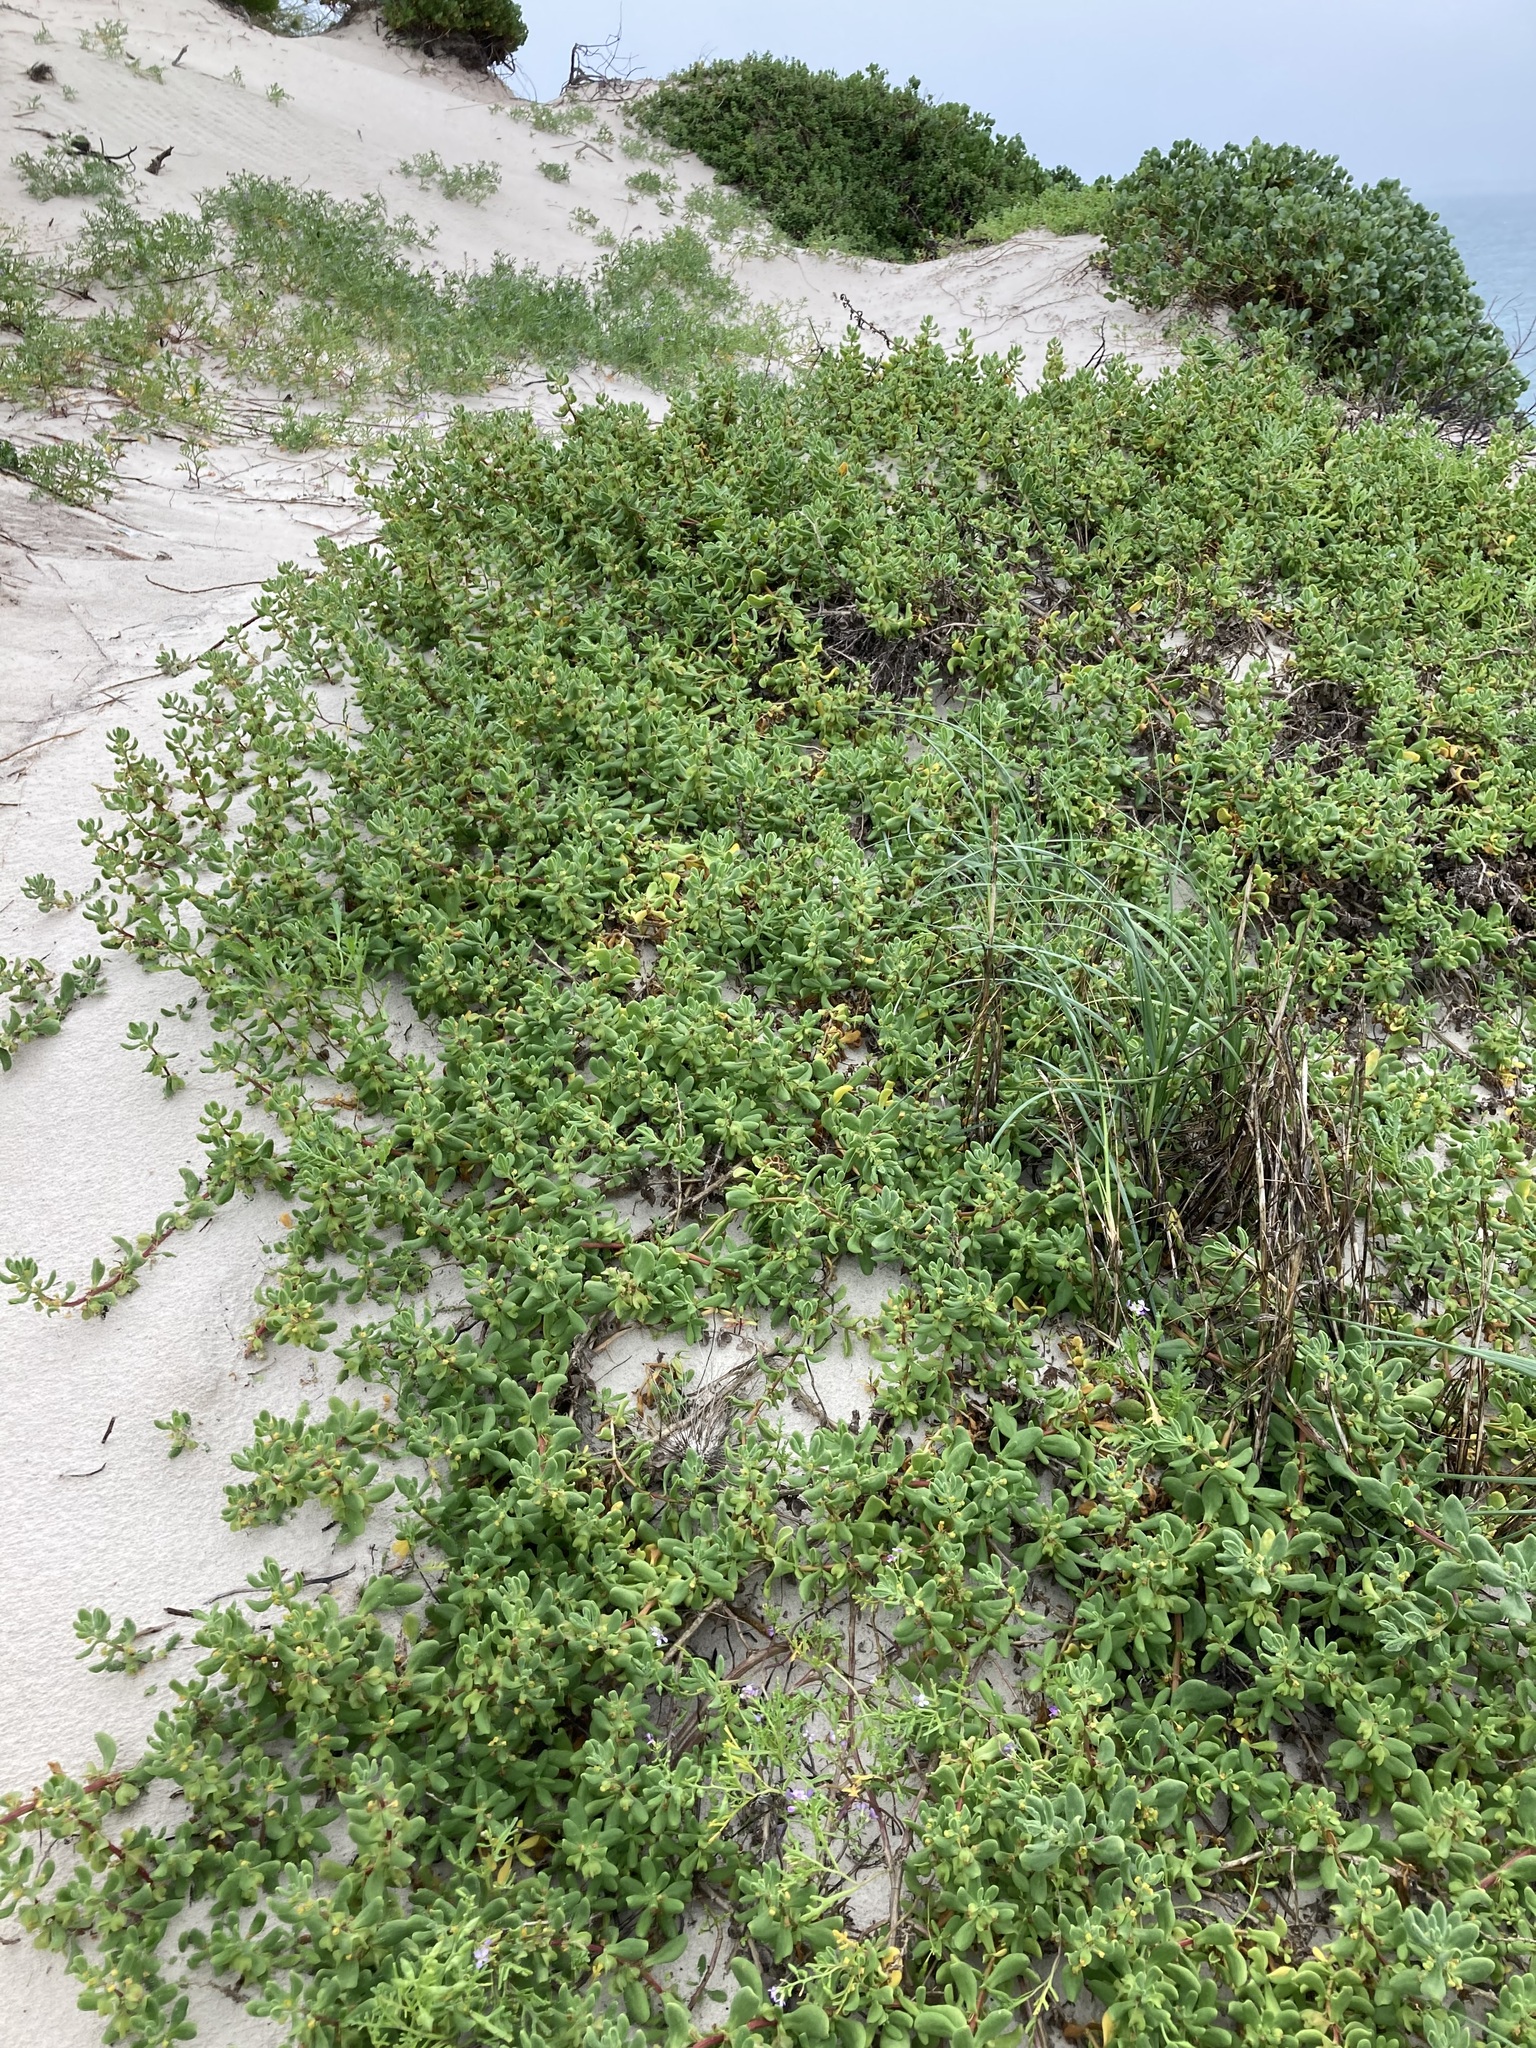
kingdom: Plantae
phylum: Tracheophyta
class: Magnoliopsida
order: Caryophyllales
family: Aizoaceae
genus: Tetragonia
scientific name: Tetragonia decumbens
